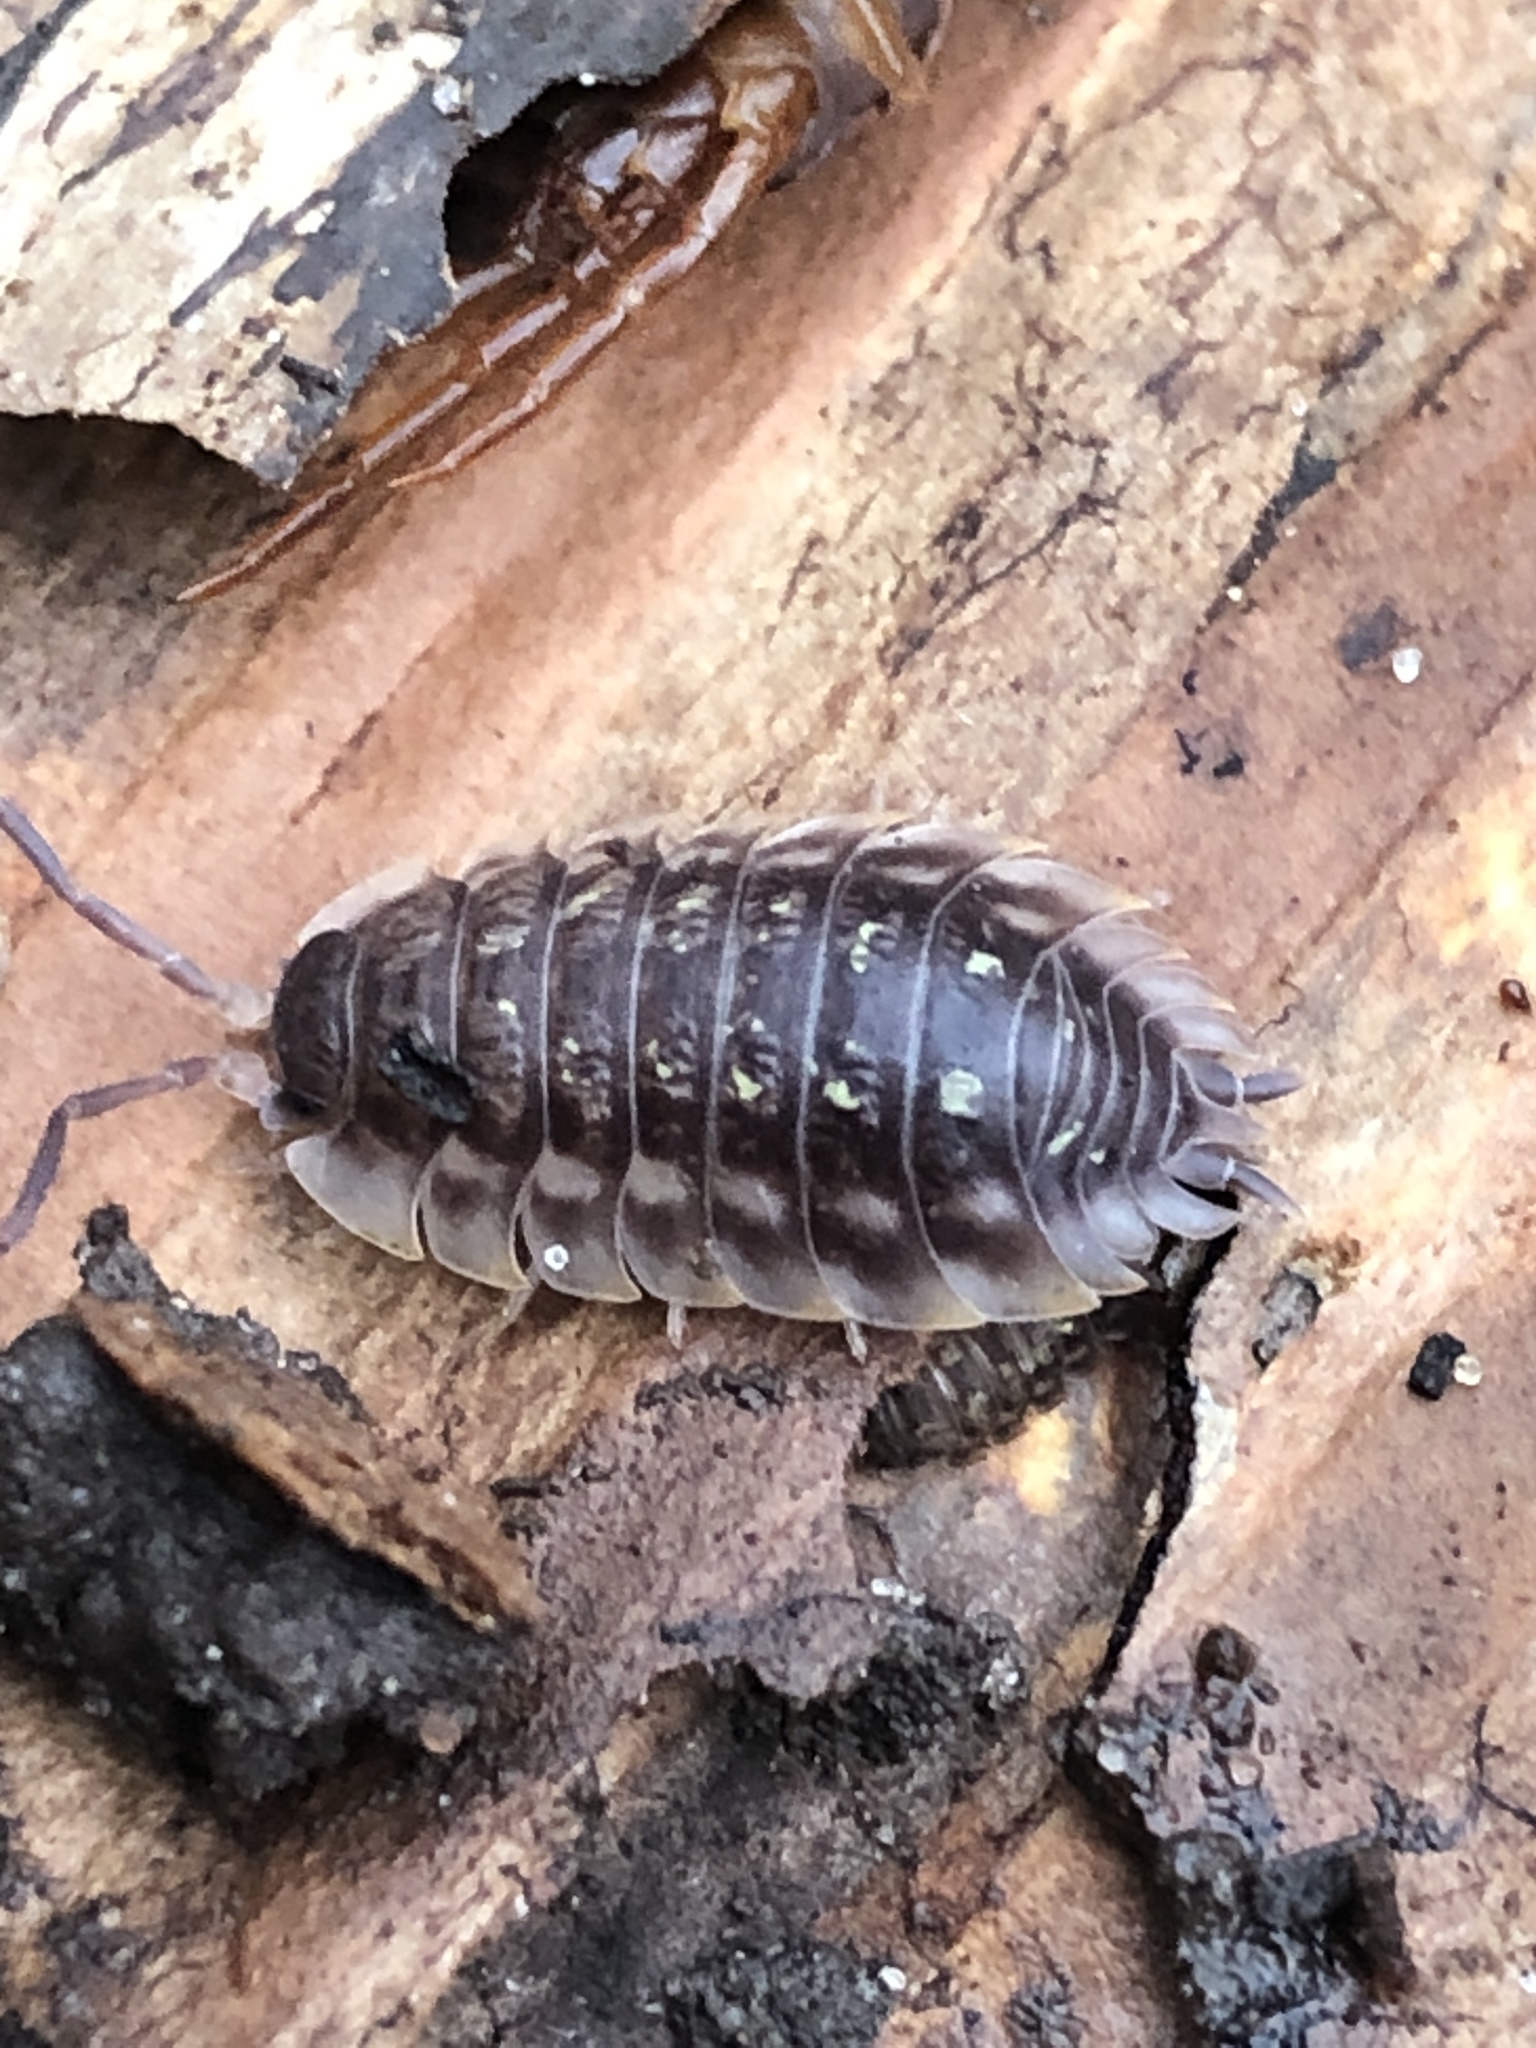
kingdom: Animalia
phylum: Arthropoda
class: Malacostraca
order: Isopoda
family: Oniscidae
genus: Oniscus
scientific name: Oniscus asellus
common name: Common shiny woodlouse
